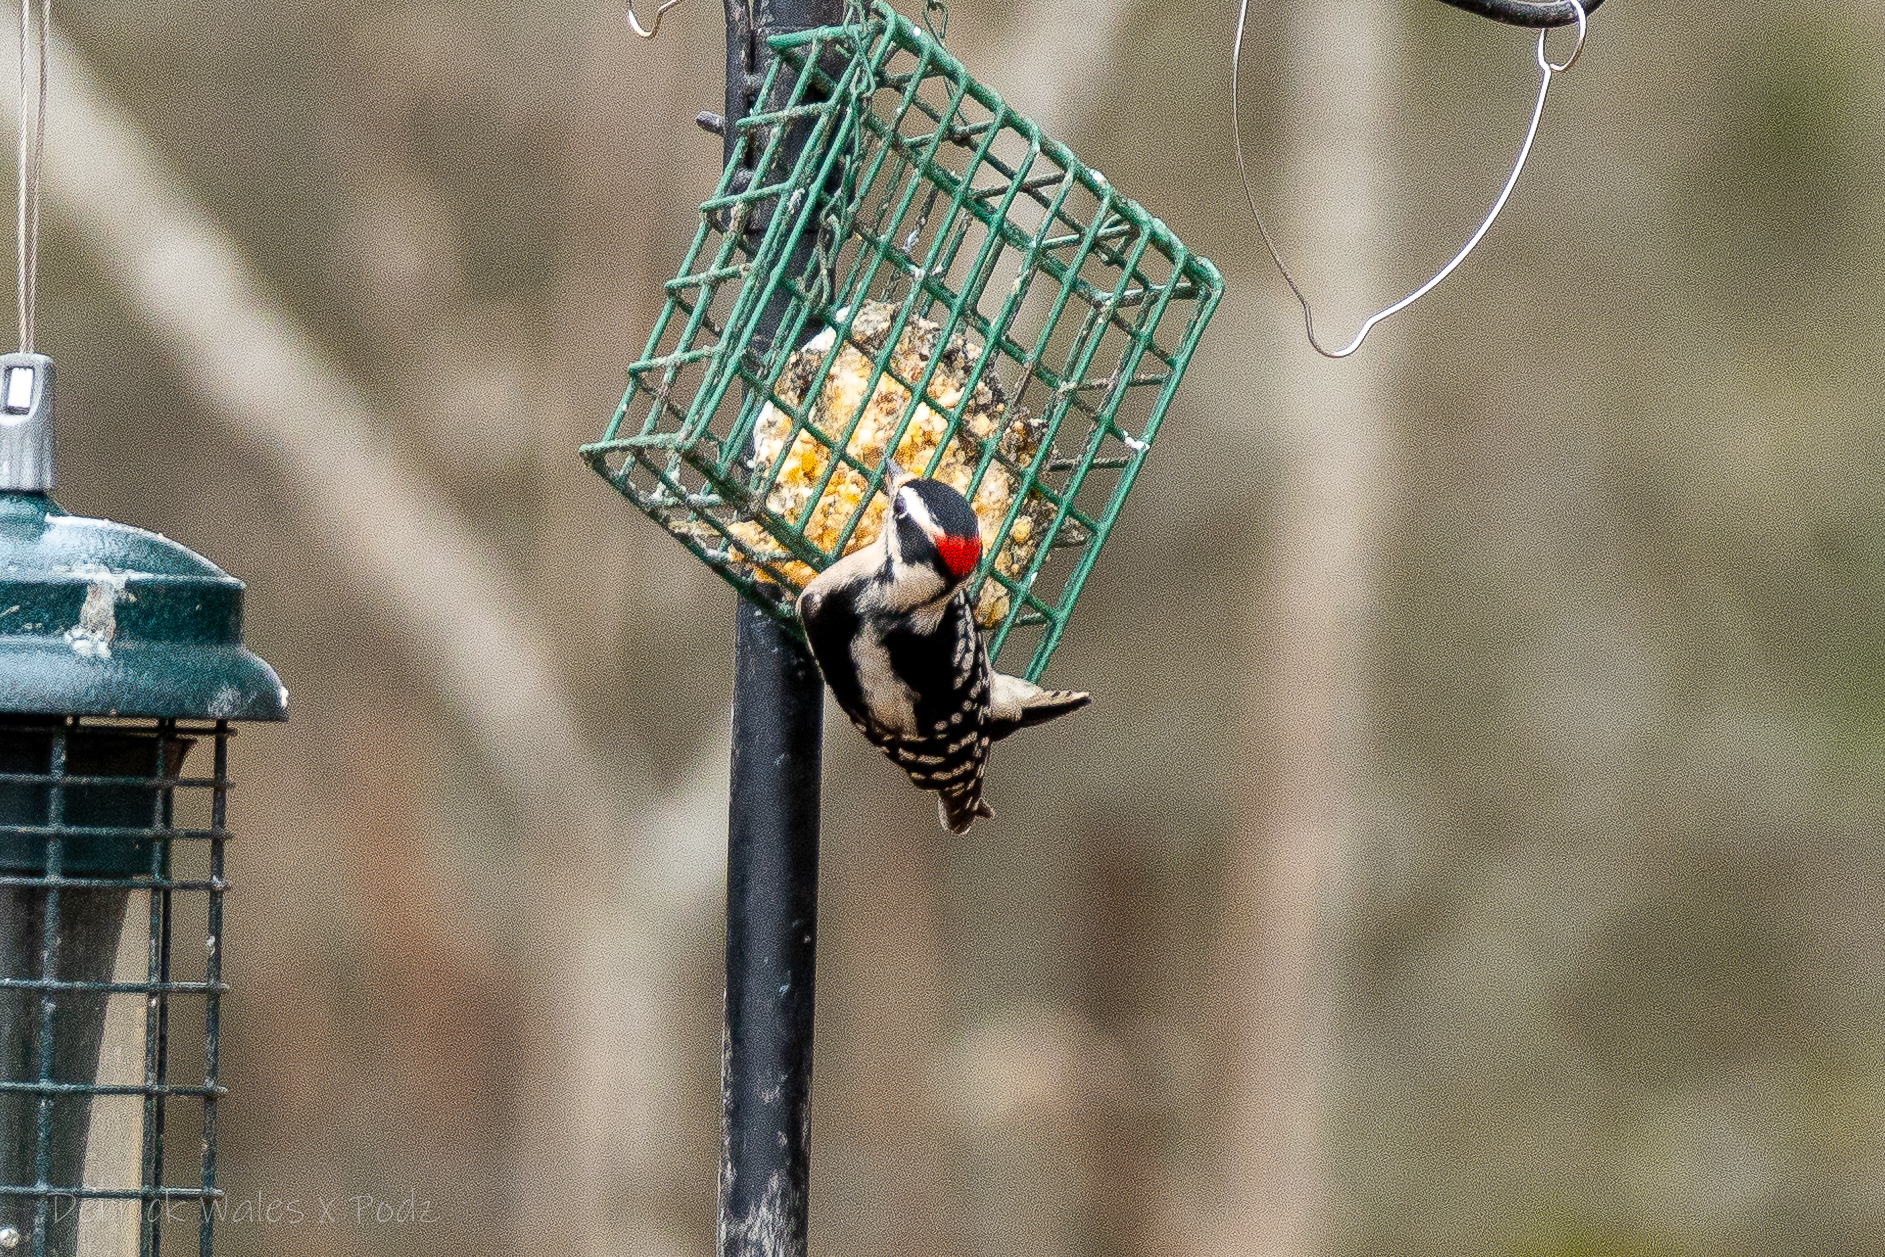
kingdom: Animalia
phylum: Chordata
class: Aves
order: Piciformes
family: Picidae
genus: Dryobates
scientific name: Dryobates pubescens
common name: Downy woodpecker
